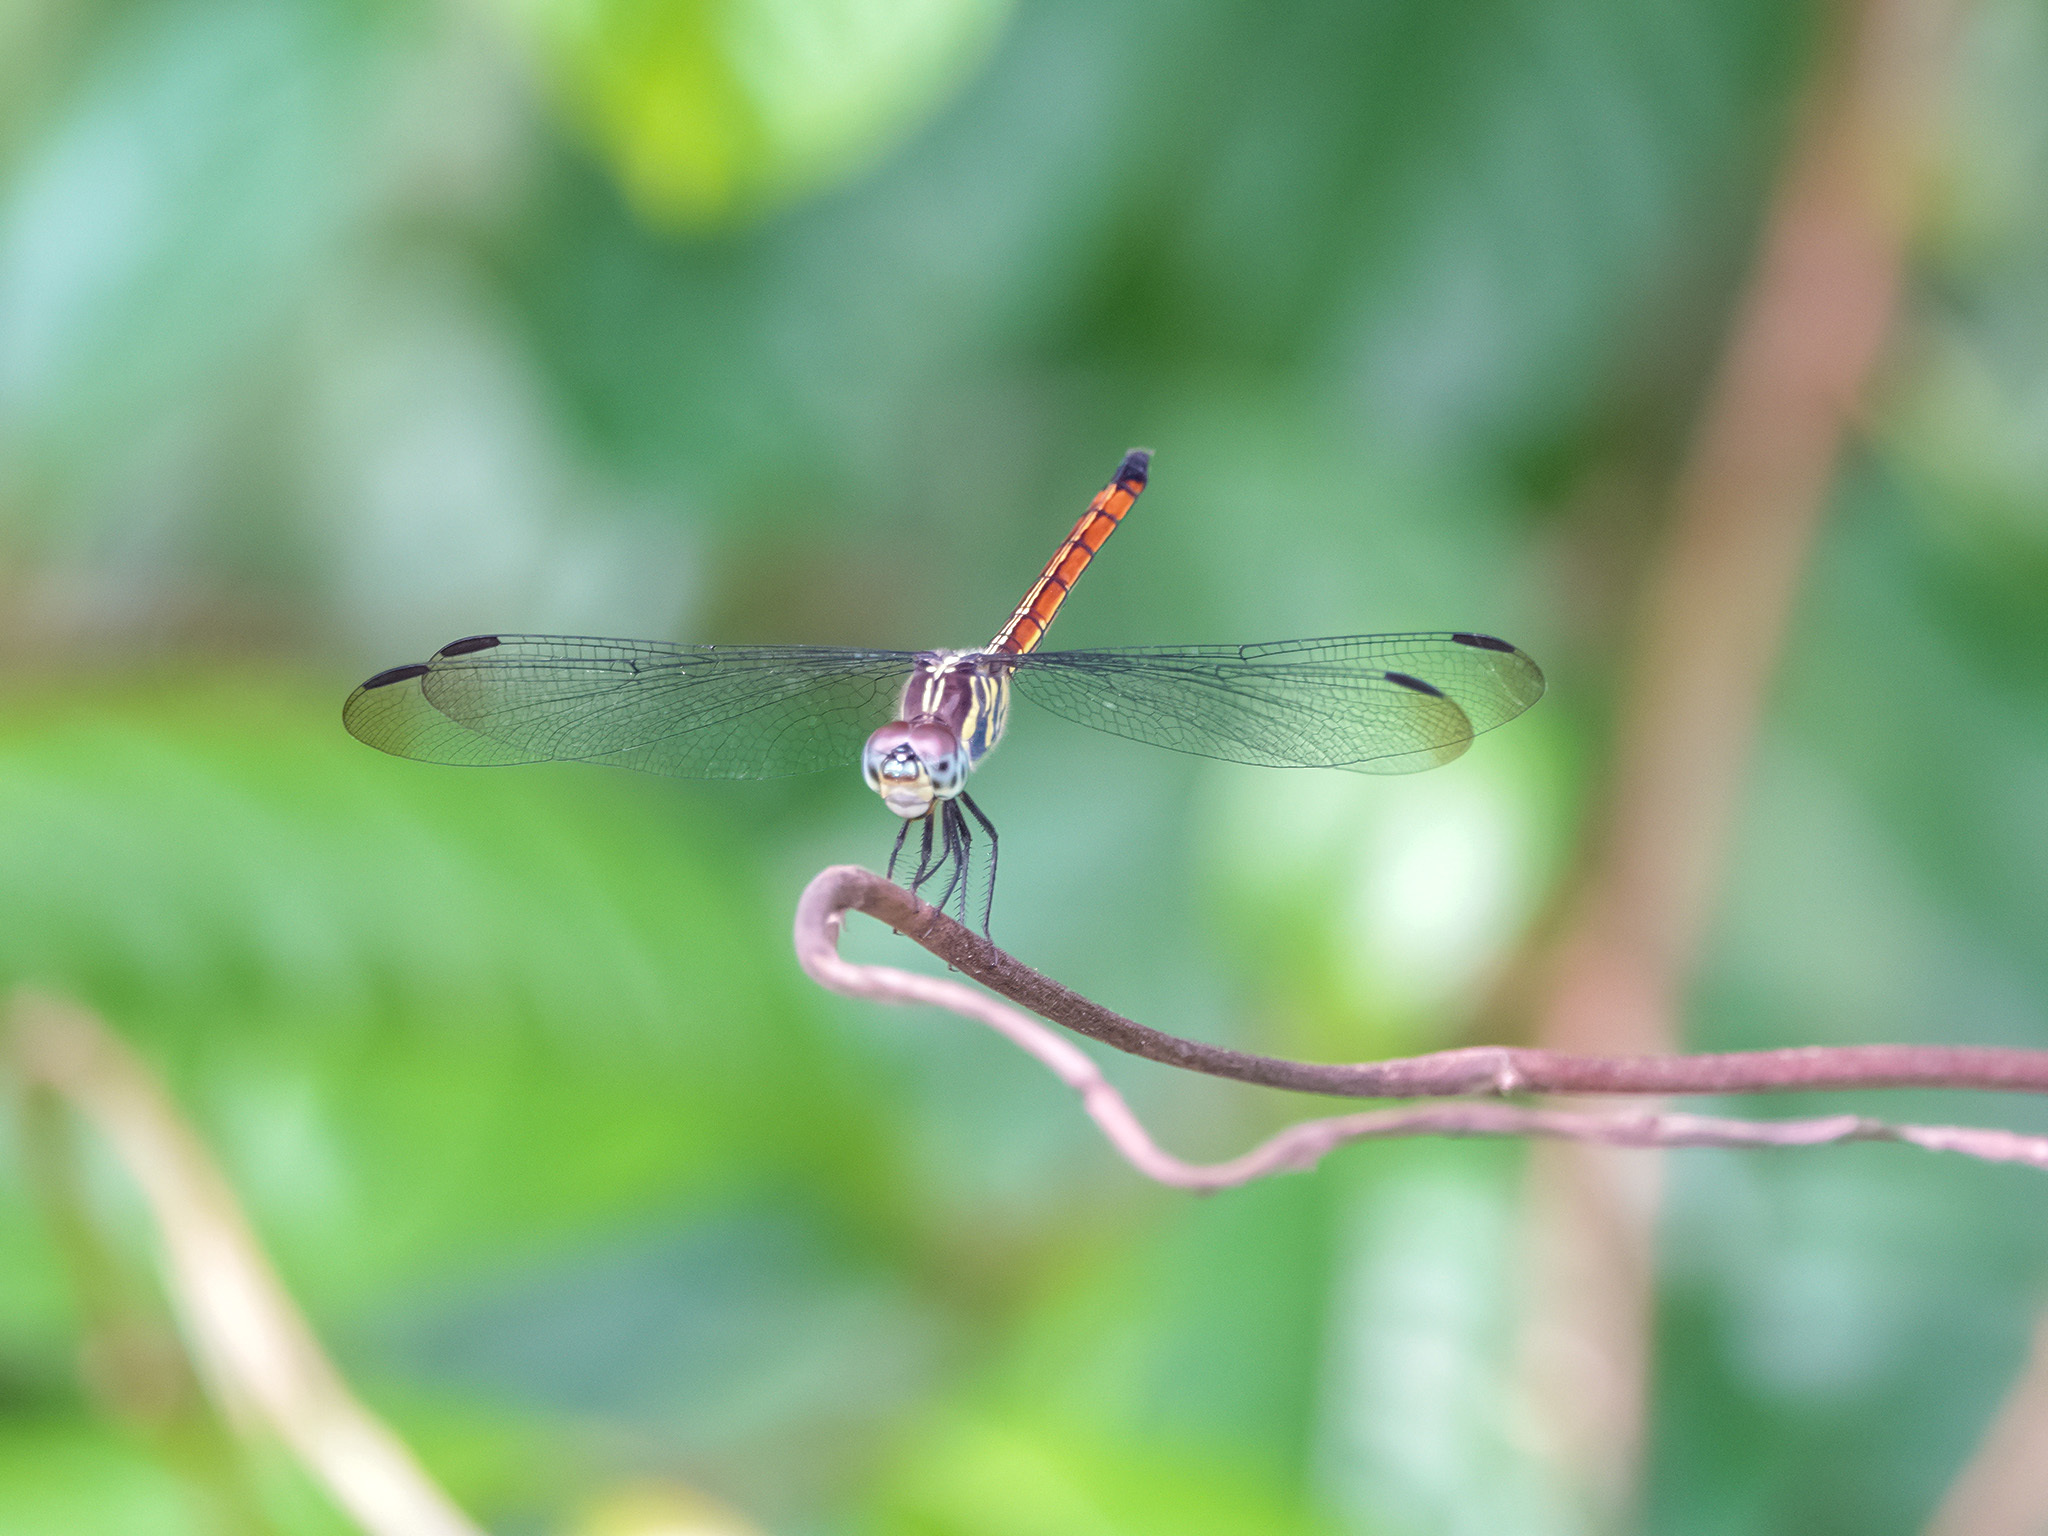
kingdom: Animalia
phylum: Arthropoda
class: Insecta
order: Odonata
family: Libellulidae
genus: Lathrecista
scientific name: Lathrecista asiatica
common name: Scarlet grenadier
